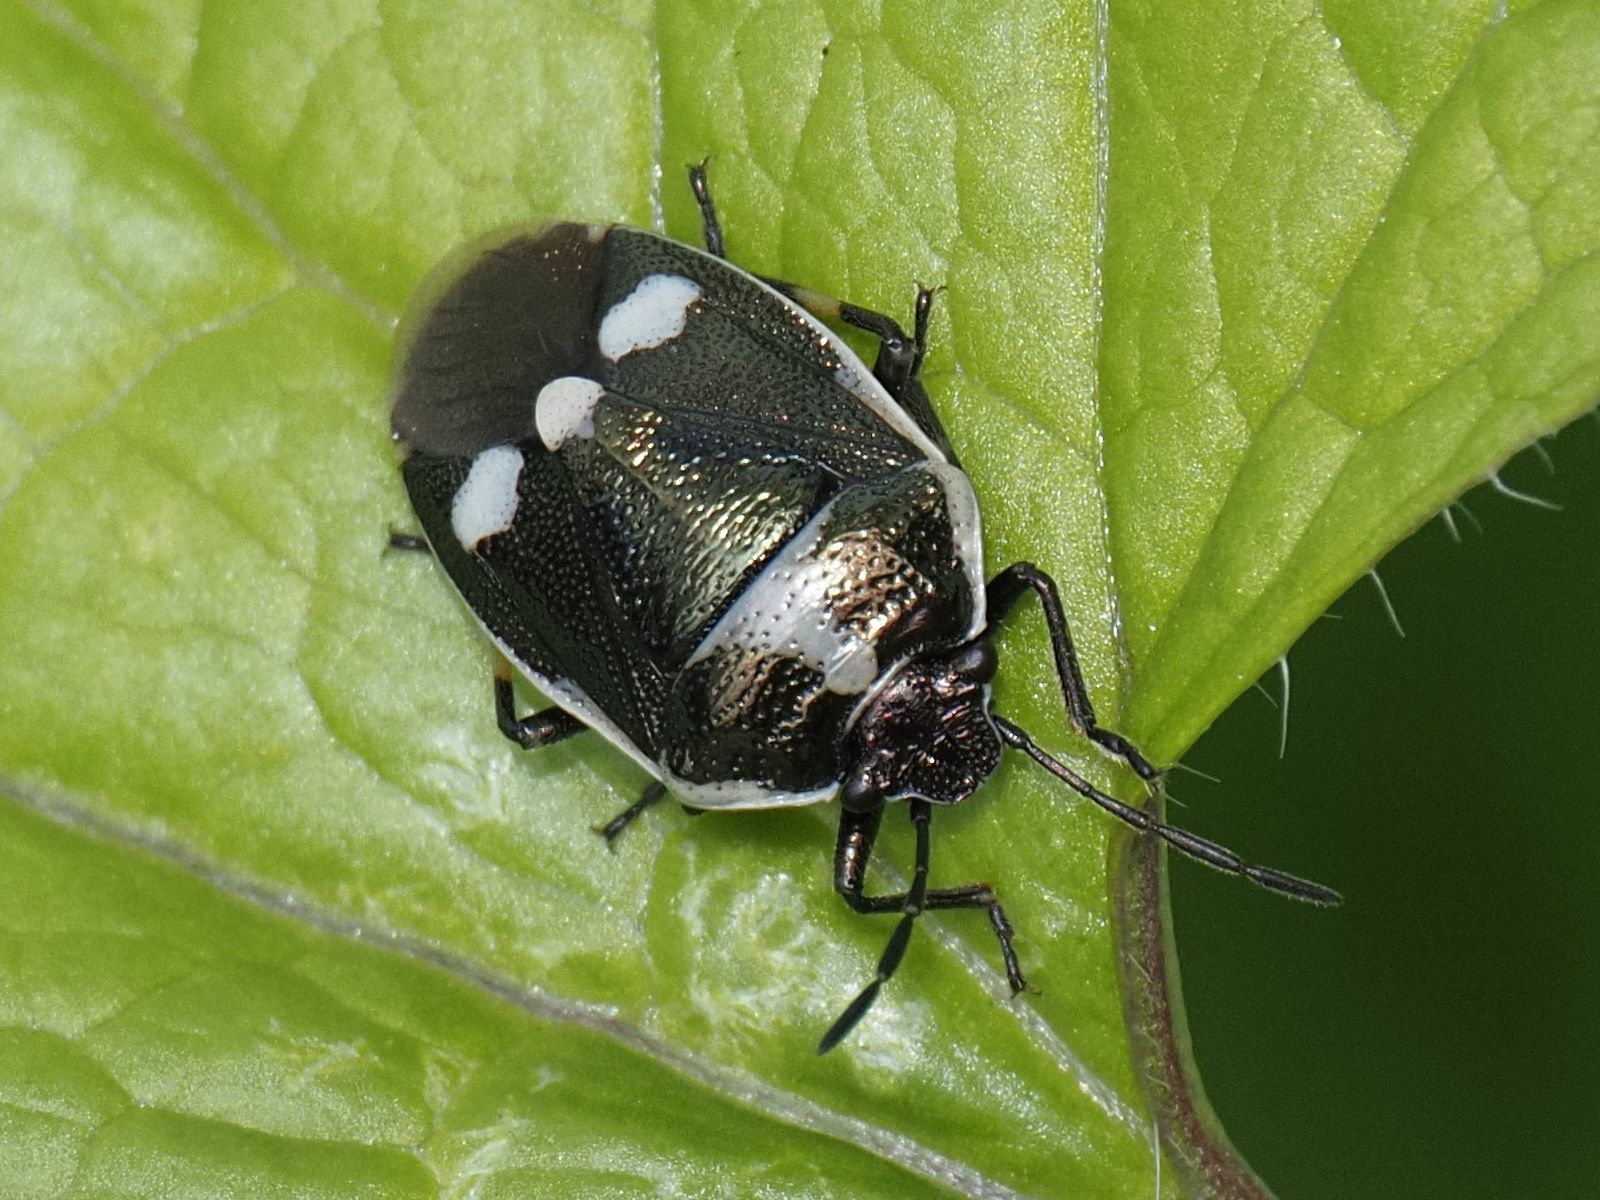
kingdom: Animalia
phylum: Arthropoda
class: Insecta
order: Hemiptera
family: Pentatomidae
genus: Eurydema
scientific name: Eurydema oleracea
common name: Cabbage bug
